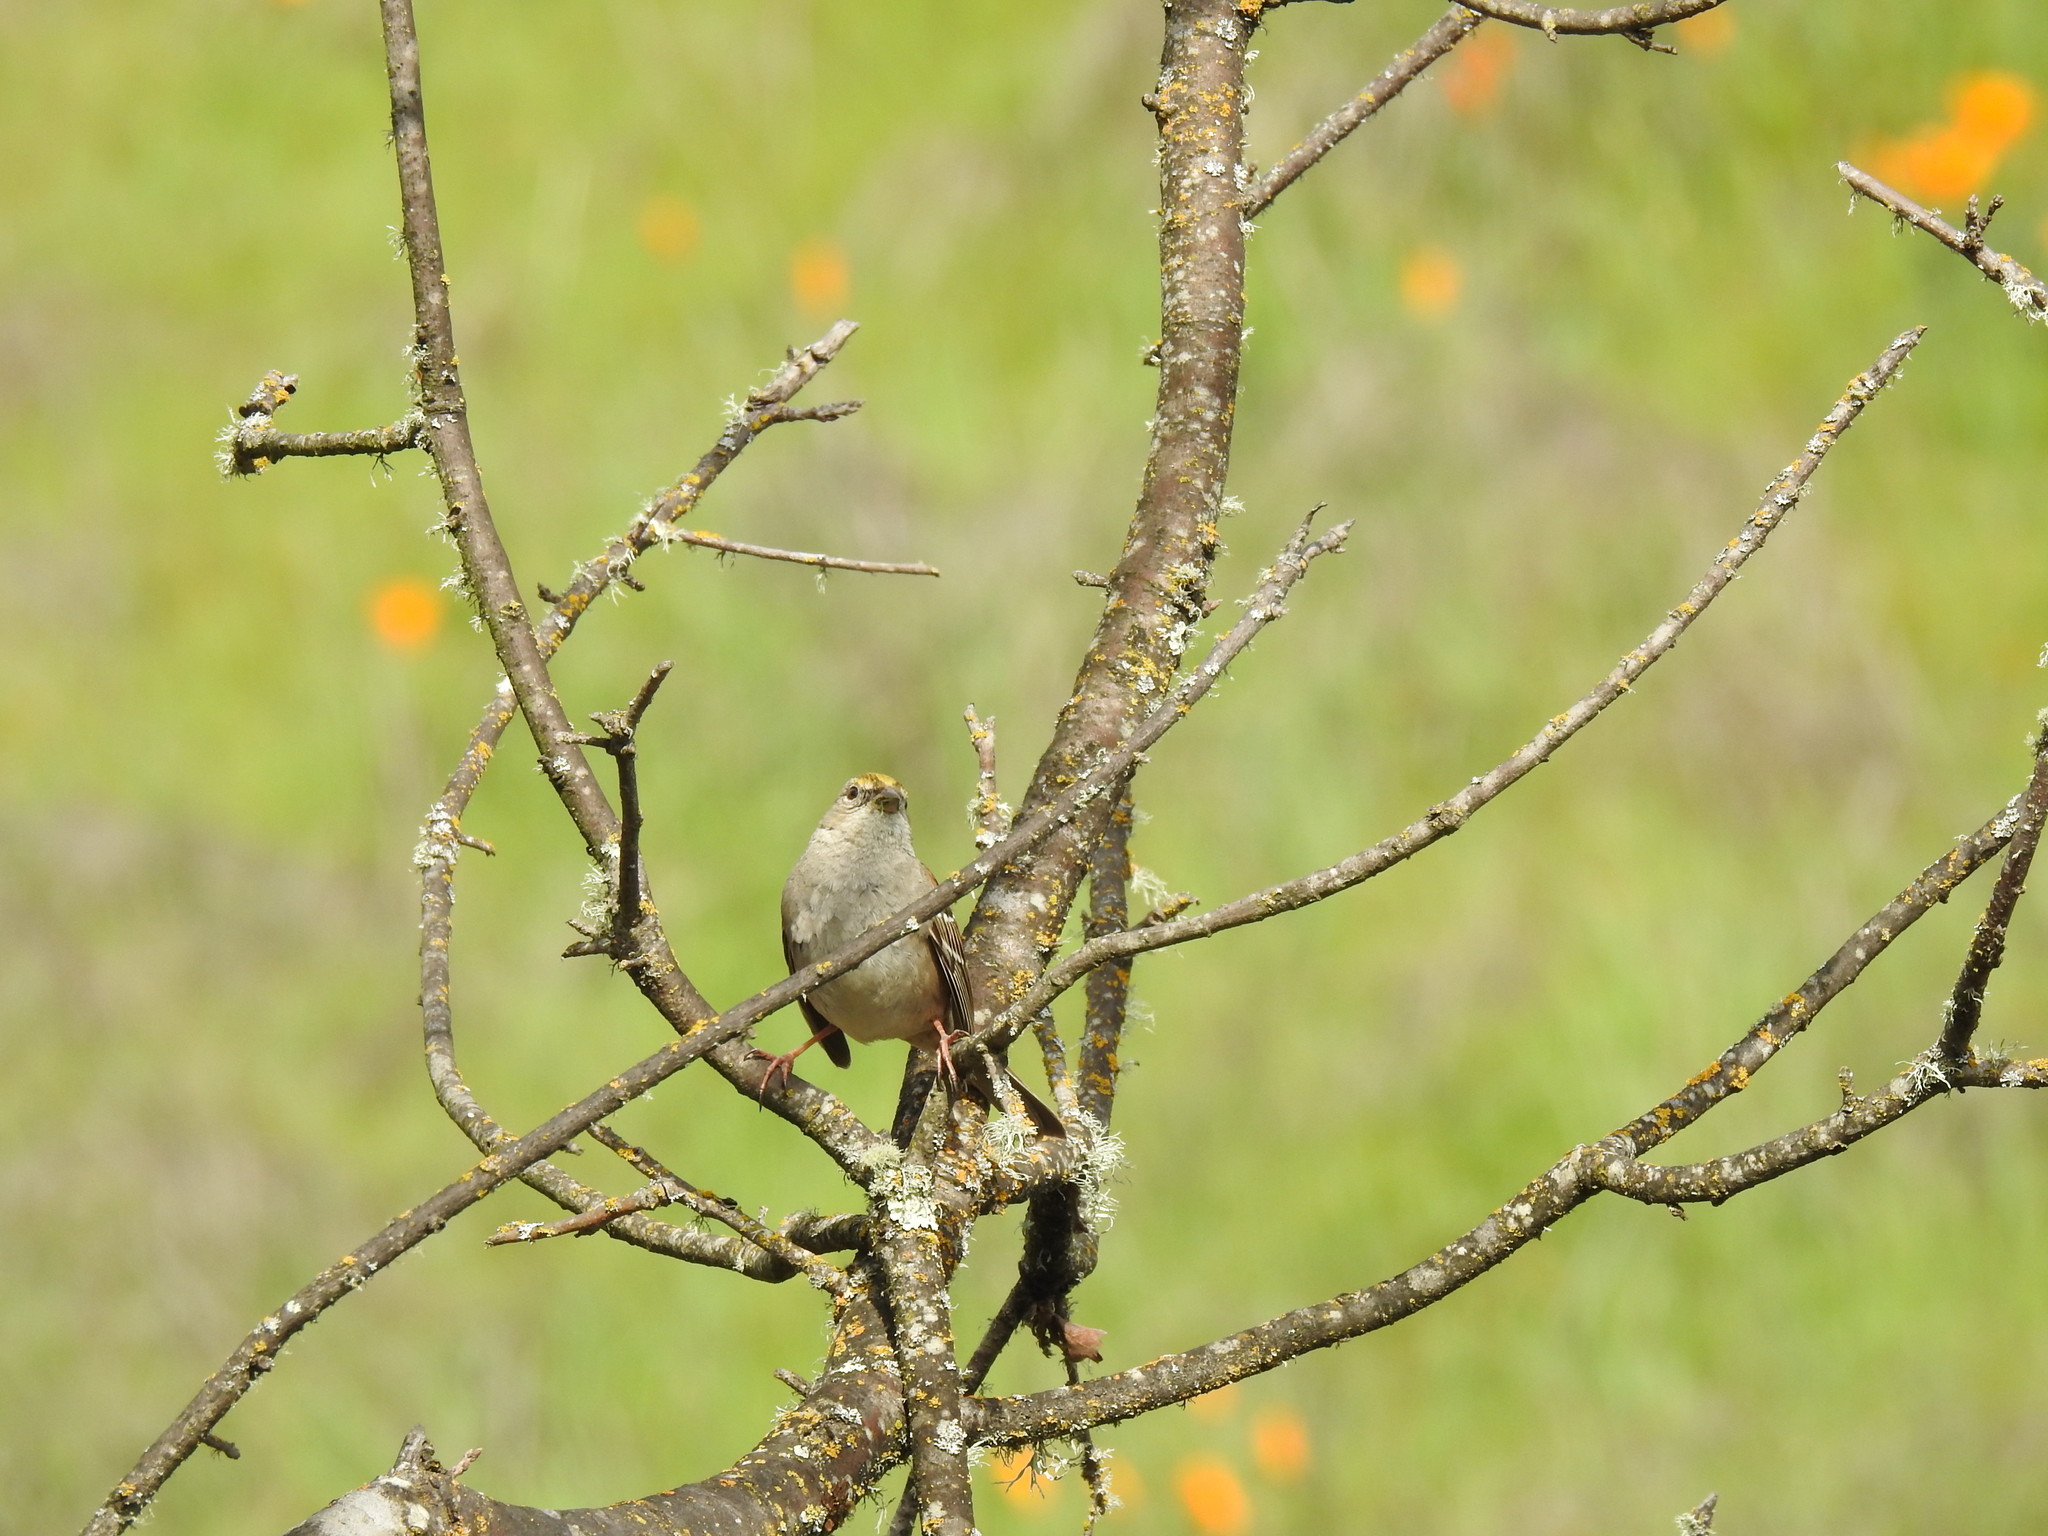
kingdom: Animalia
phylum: Chordata
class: Aves
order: Passeriformes
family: Passerellidae
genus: Zonotrichia
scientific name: Zonotrichia atricapilla
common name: Golden-crowned sparrow
